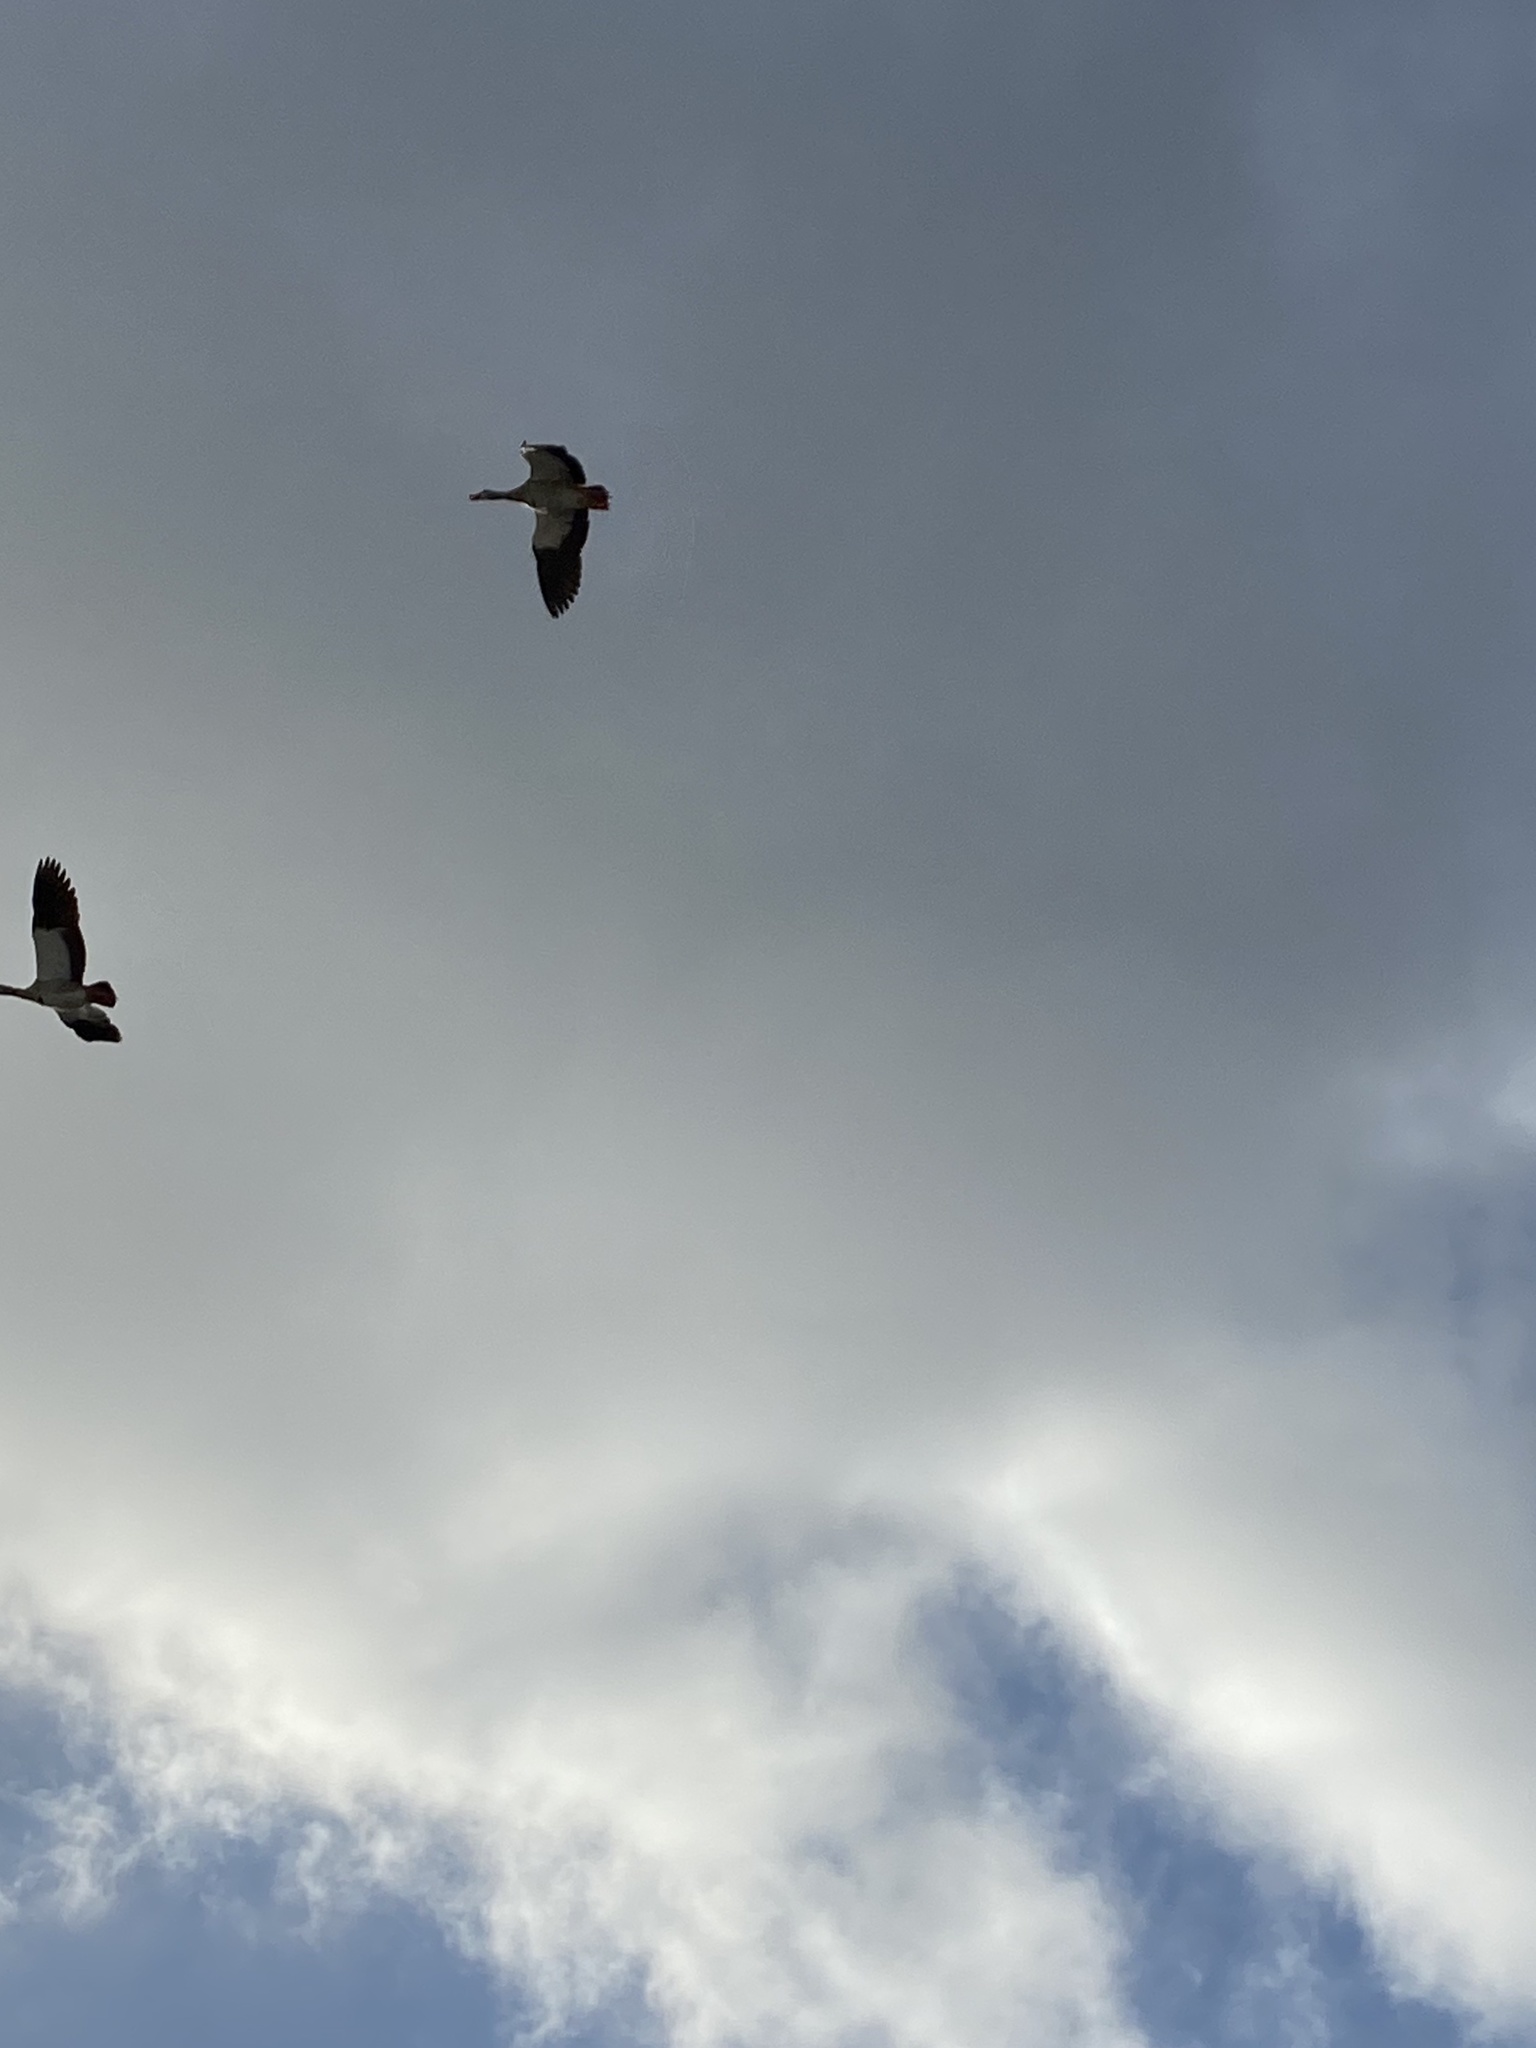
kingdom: Animalia
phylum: Chordata
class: Aves
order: Anseriformes
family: Anatidae
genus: Alopochen
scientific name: Alopochen aegyptiaca
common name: Egyptian goose
